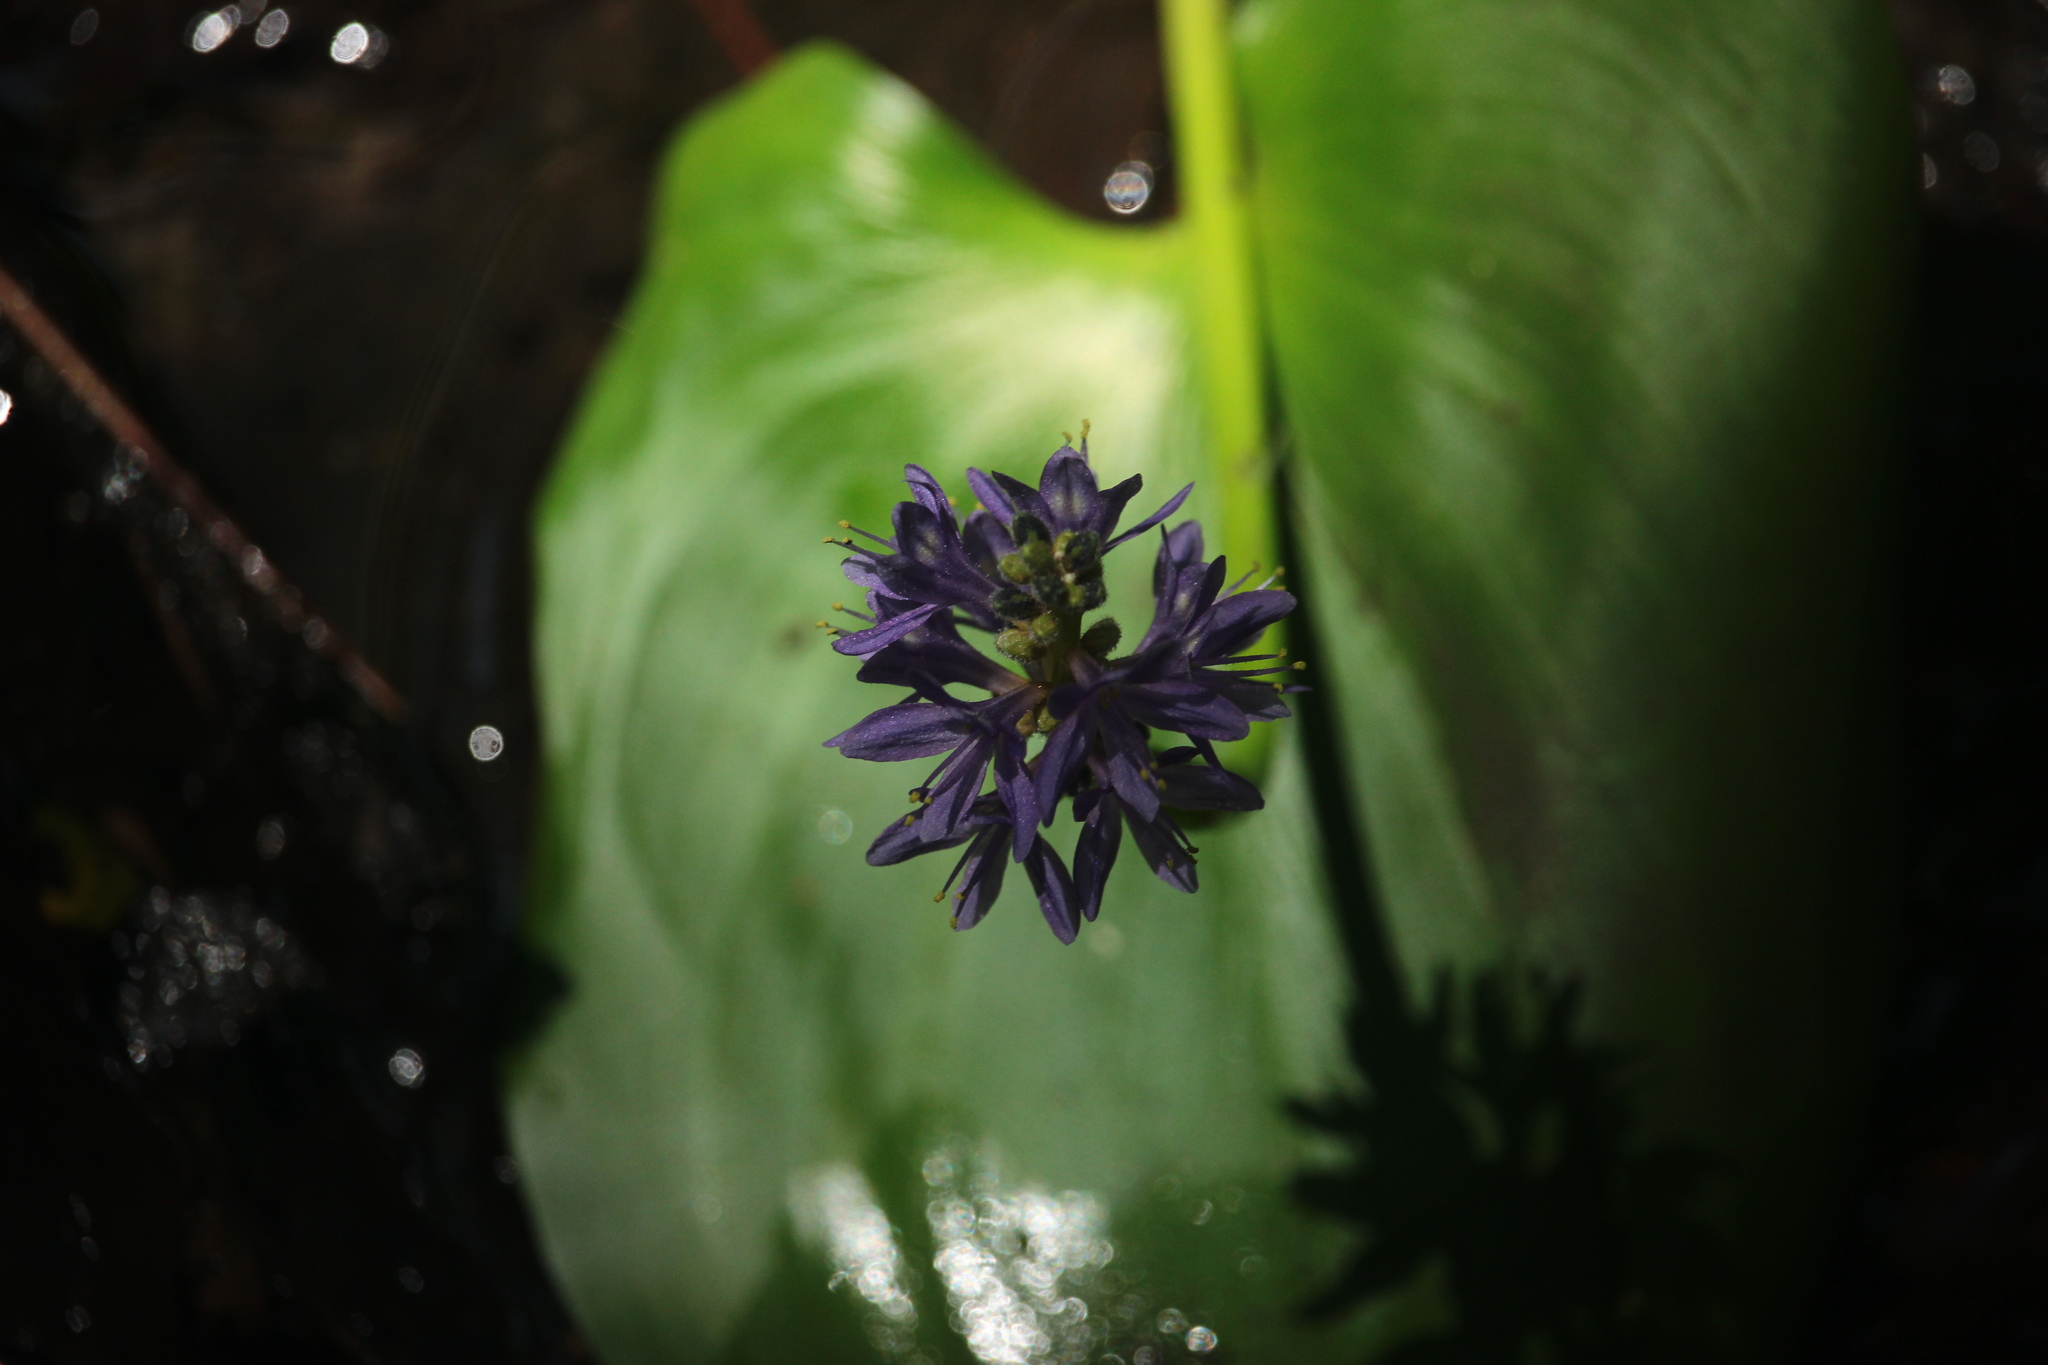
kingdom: Plantae
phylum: Tracheophyta
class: Liliopsida
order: Commelinales
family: Pontederiaceae
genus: Pontederia
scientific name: Pontederia cordata
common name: Pickerelweed
